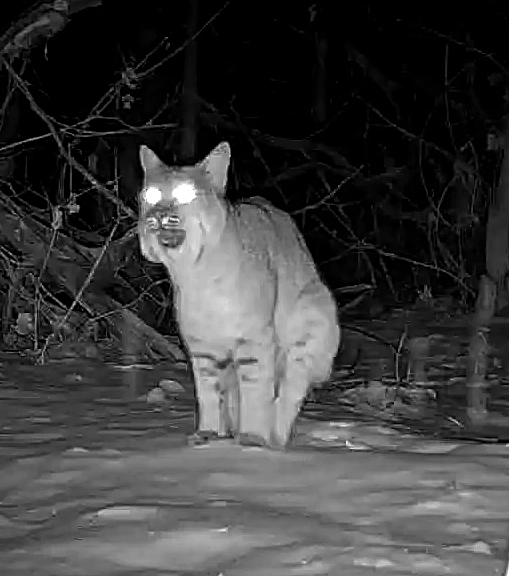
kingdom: Animalia
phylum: Chordata
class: Mammalia
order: Carnivora
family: Felidae
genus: Lynx
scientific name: Lynx rufus
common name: Bobcat
